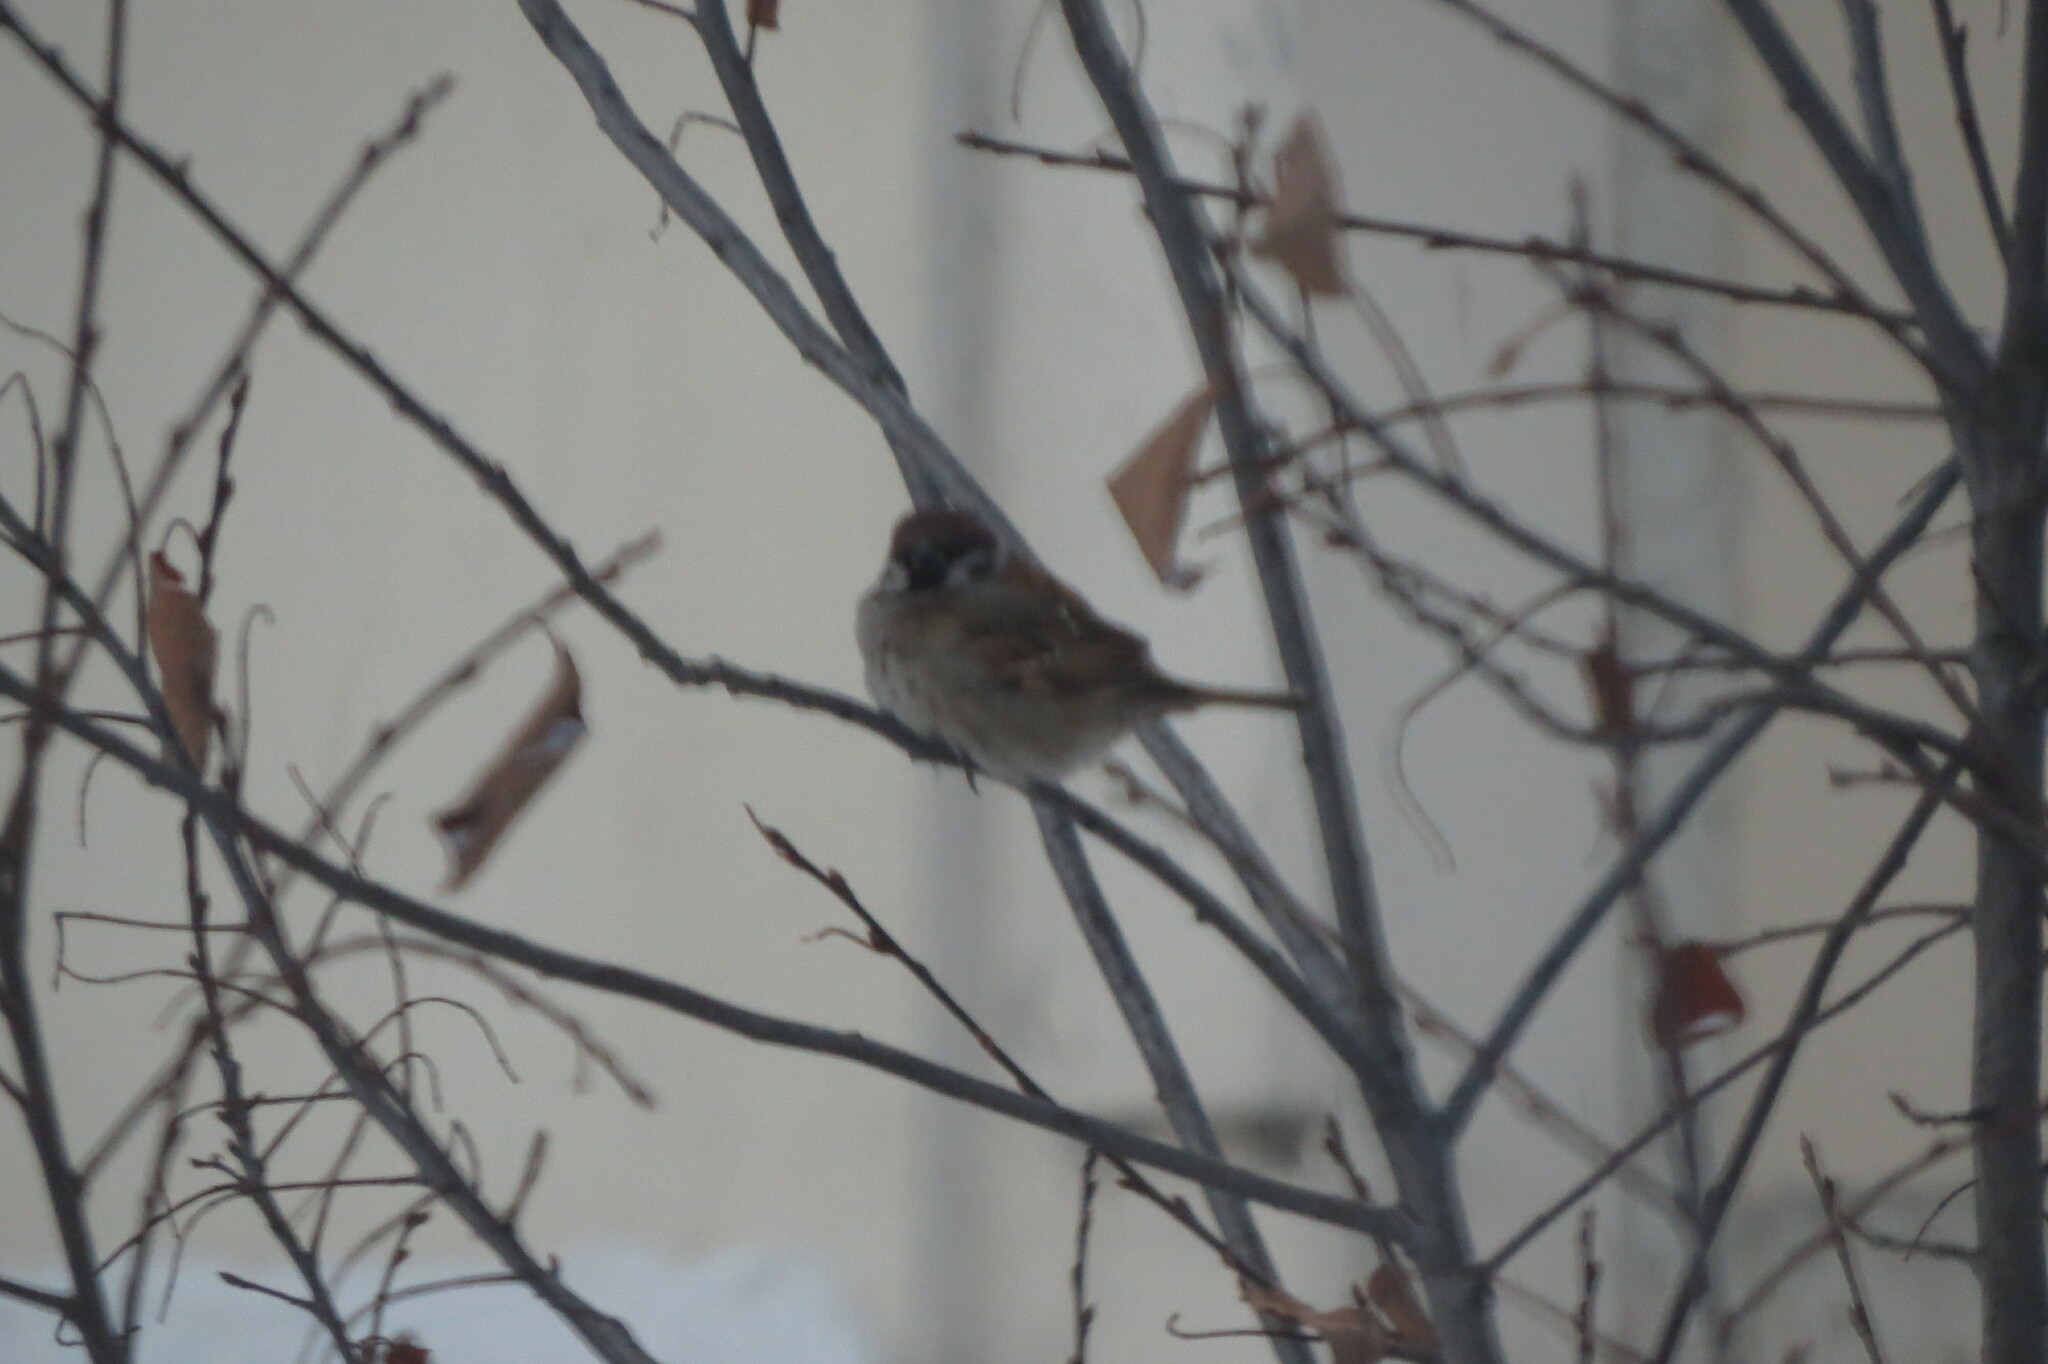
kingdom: Animalia
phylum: Chordata
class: Aves
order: Passeriformes
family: Passeridae
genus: Passer
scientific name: Passer montanus
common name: Eurasian tree sparrow
